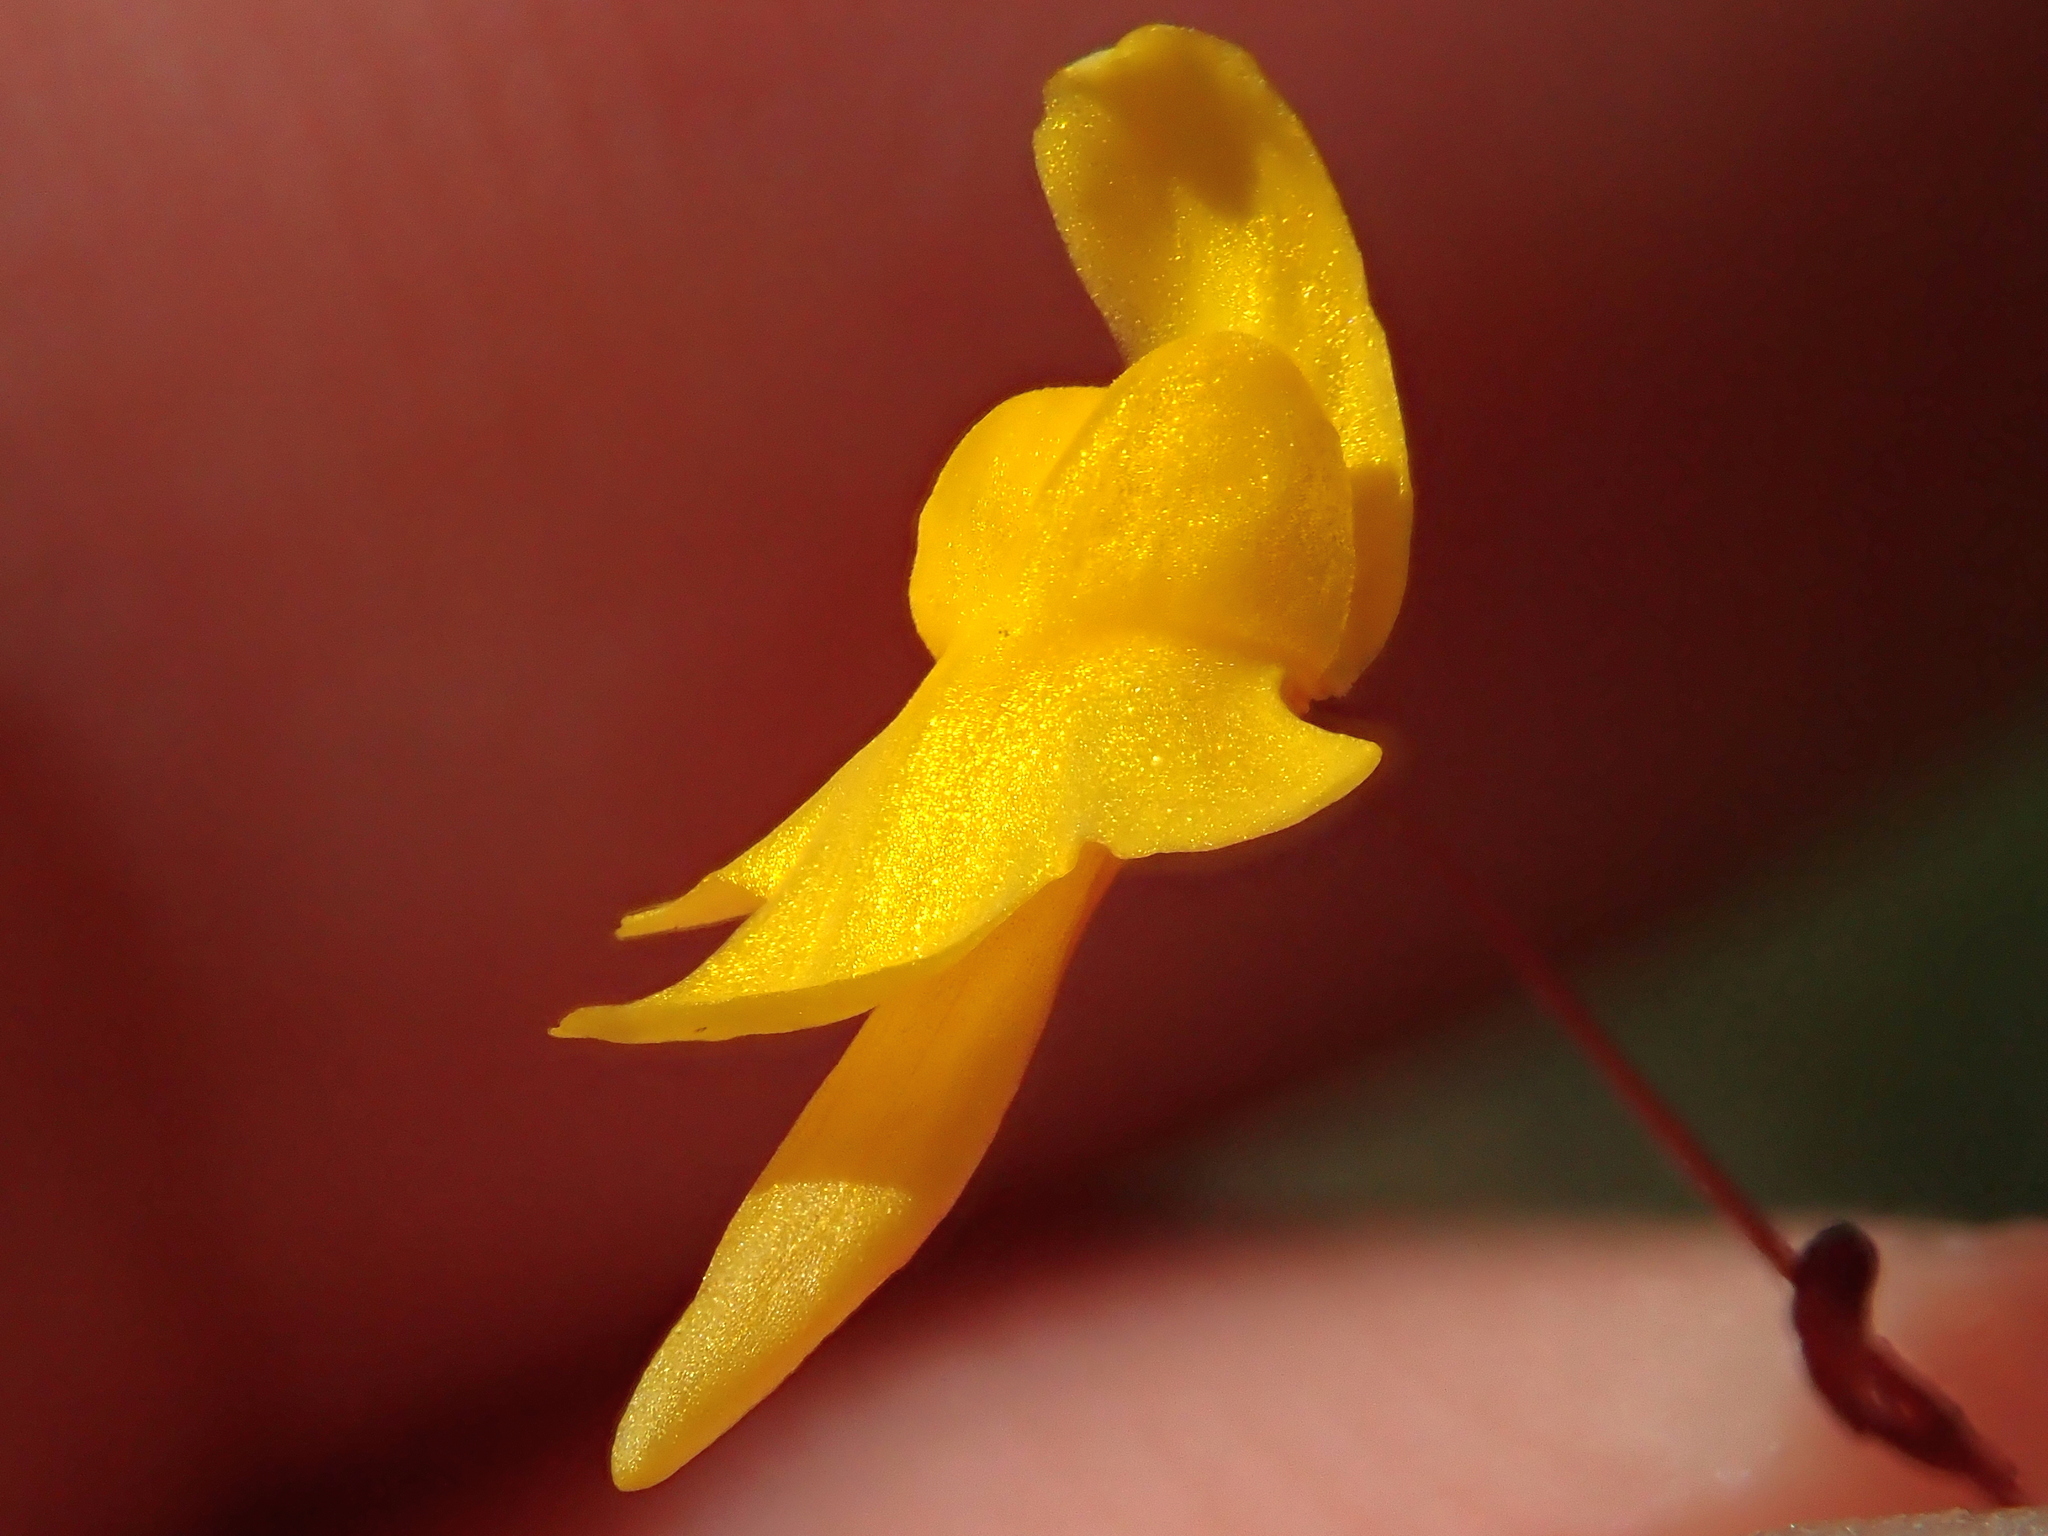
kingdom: Plantae
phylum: Tracheophyta
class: Magnoliopsida
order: Lamiales
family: Lentibulariaceae
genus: Utricularia
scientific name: Utricularia pusilla
